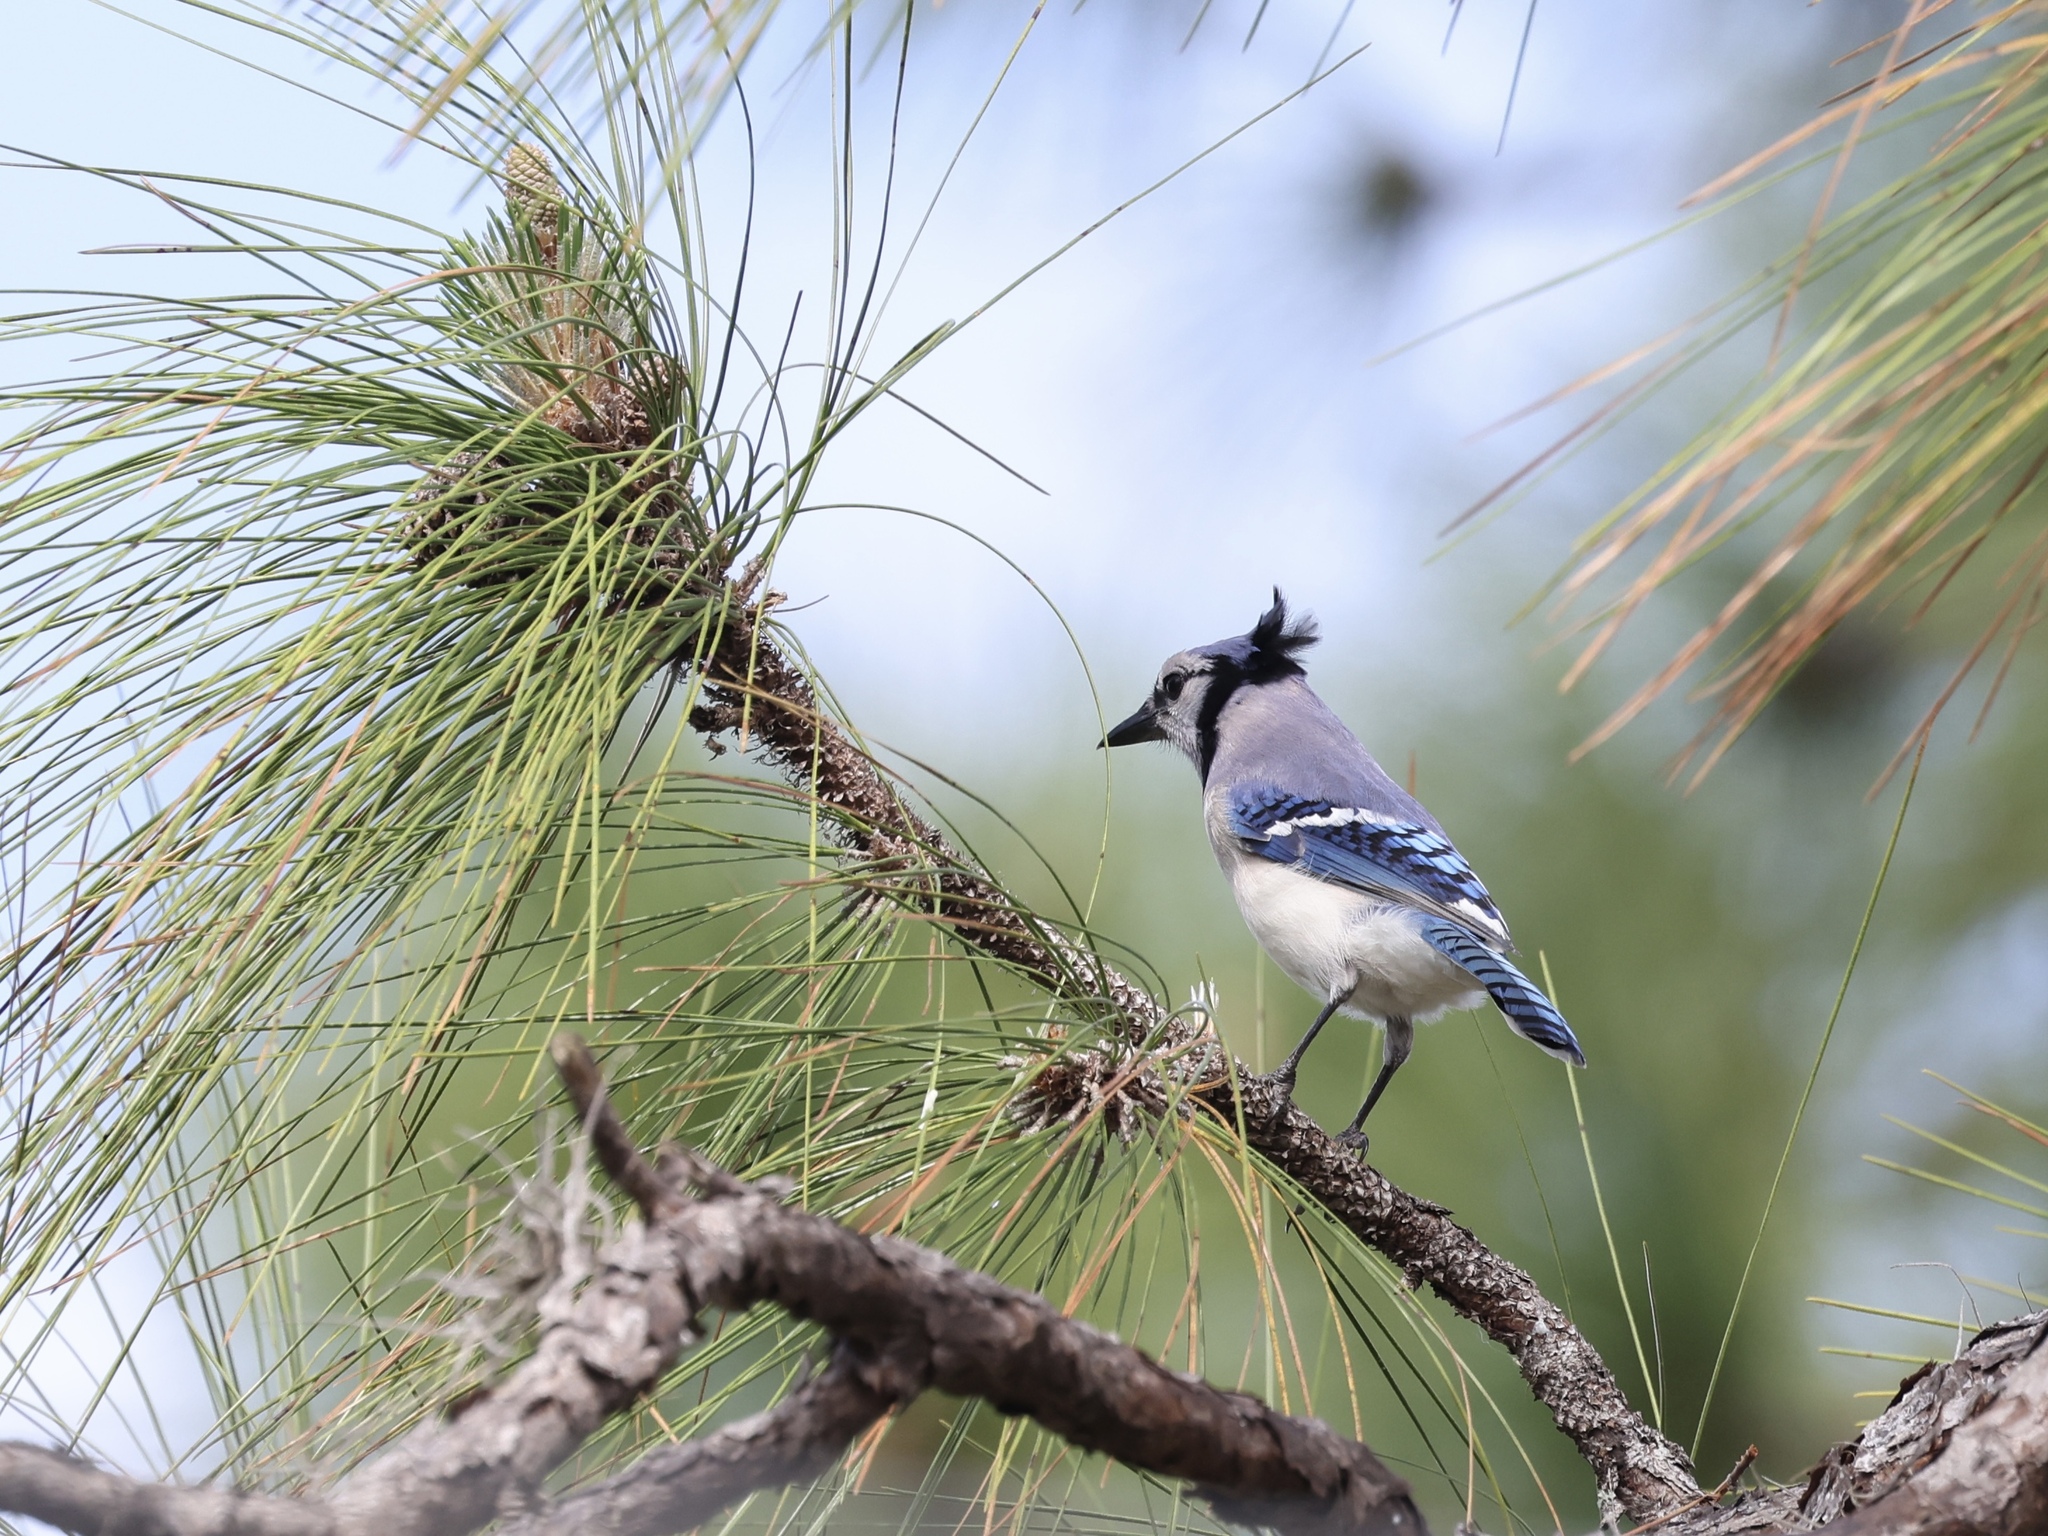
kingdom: Animalia
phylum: Chordata
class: Aves
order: Passeriformes
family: Corvidae
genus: Cyanocitta
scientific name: Cyanocitta cristata
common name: Blue jay
